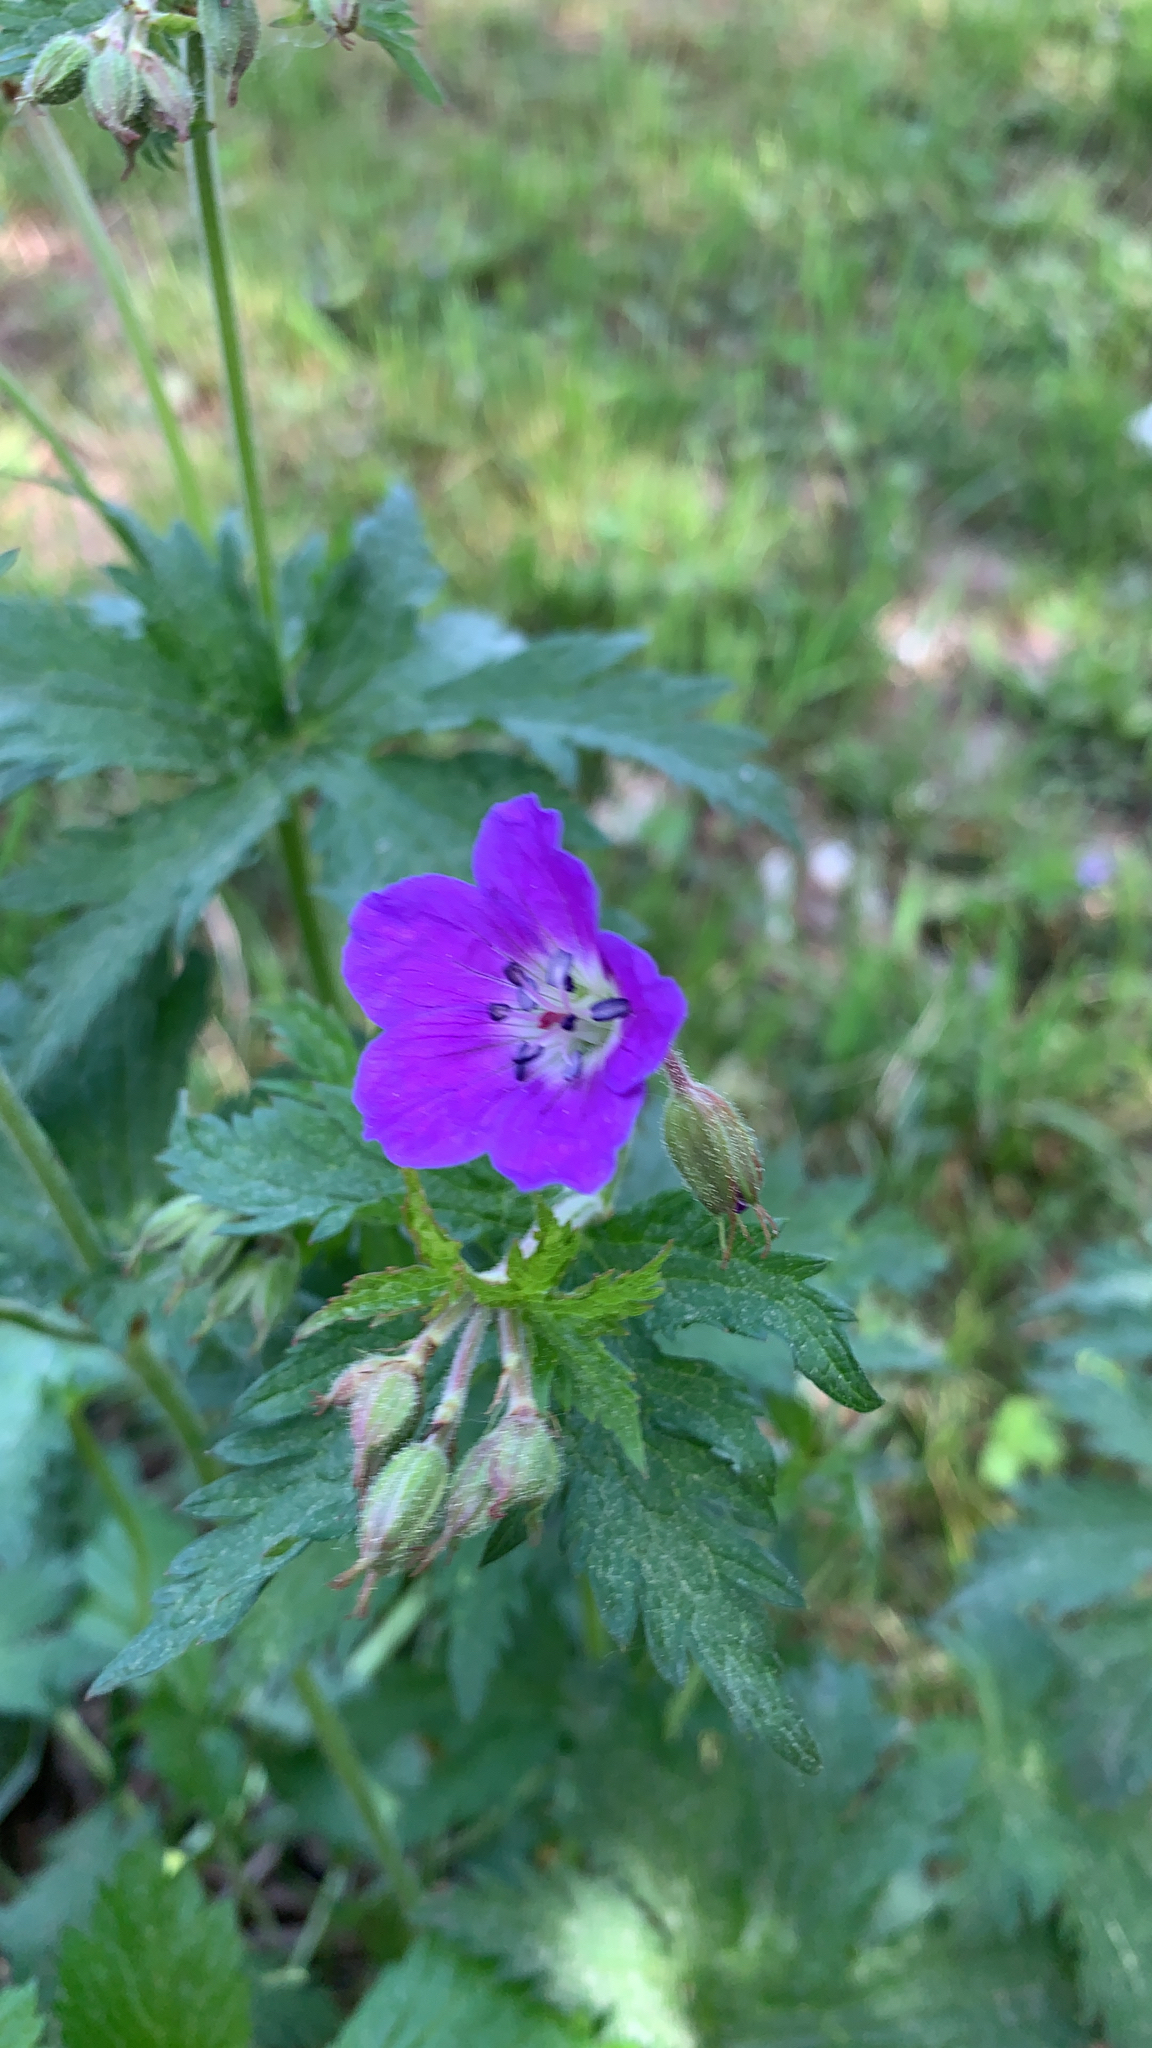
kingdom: Plantae
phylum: Tracheophyta
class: Magnoliopsida
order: Geraniales
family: Geraniaceae
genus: Geranium
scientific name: Geranium sylvaticum
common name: Wood crane's-bill
